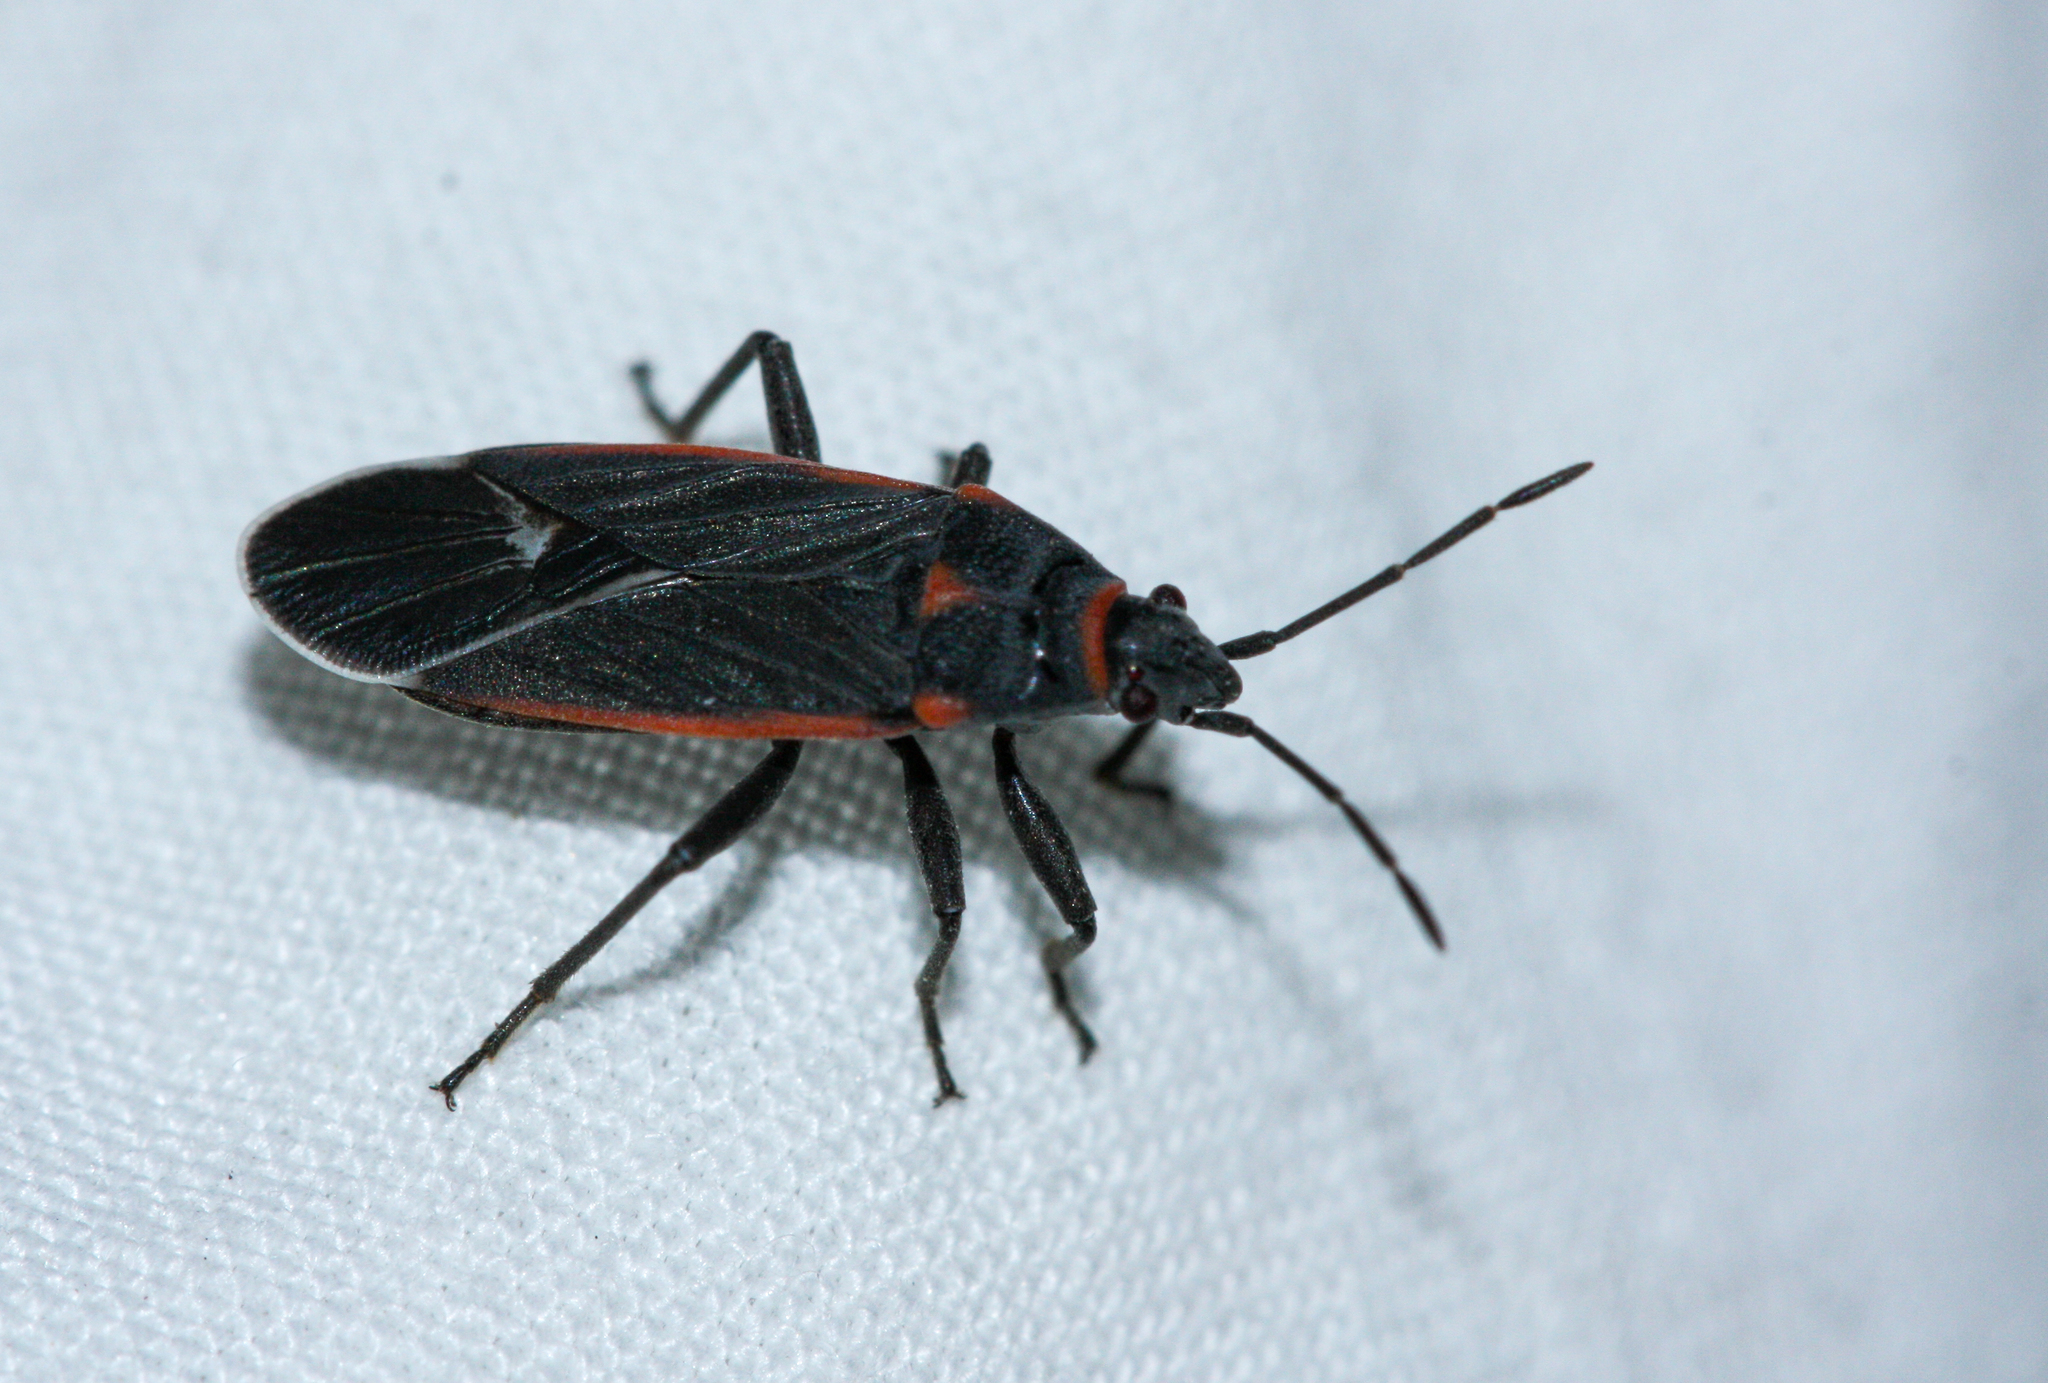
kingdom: Animalia
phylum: Arthropoda
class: Insecta
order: Hemiptera
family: Lygaeidae
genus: Melacoryphus
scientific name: Melacoryphus lateralis
